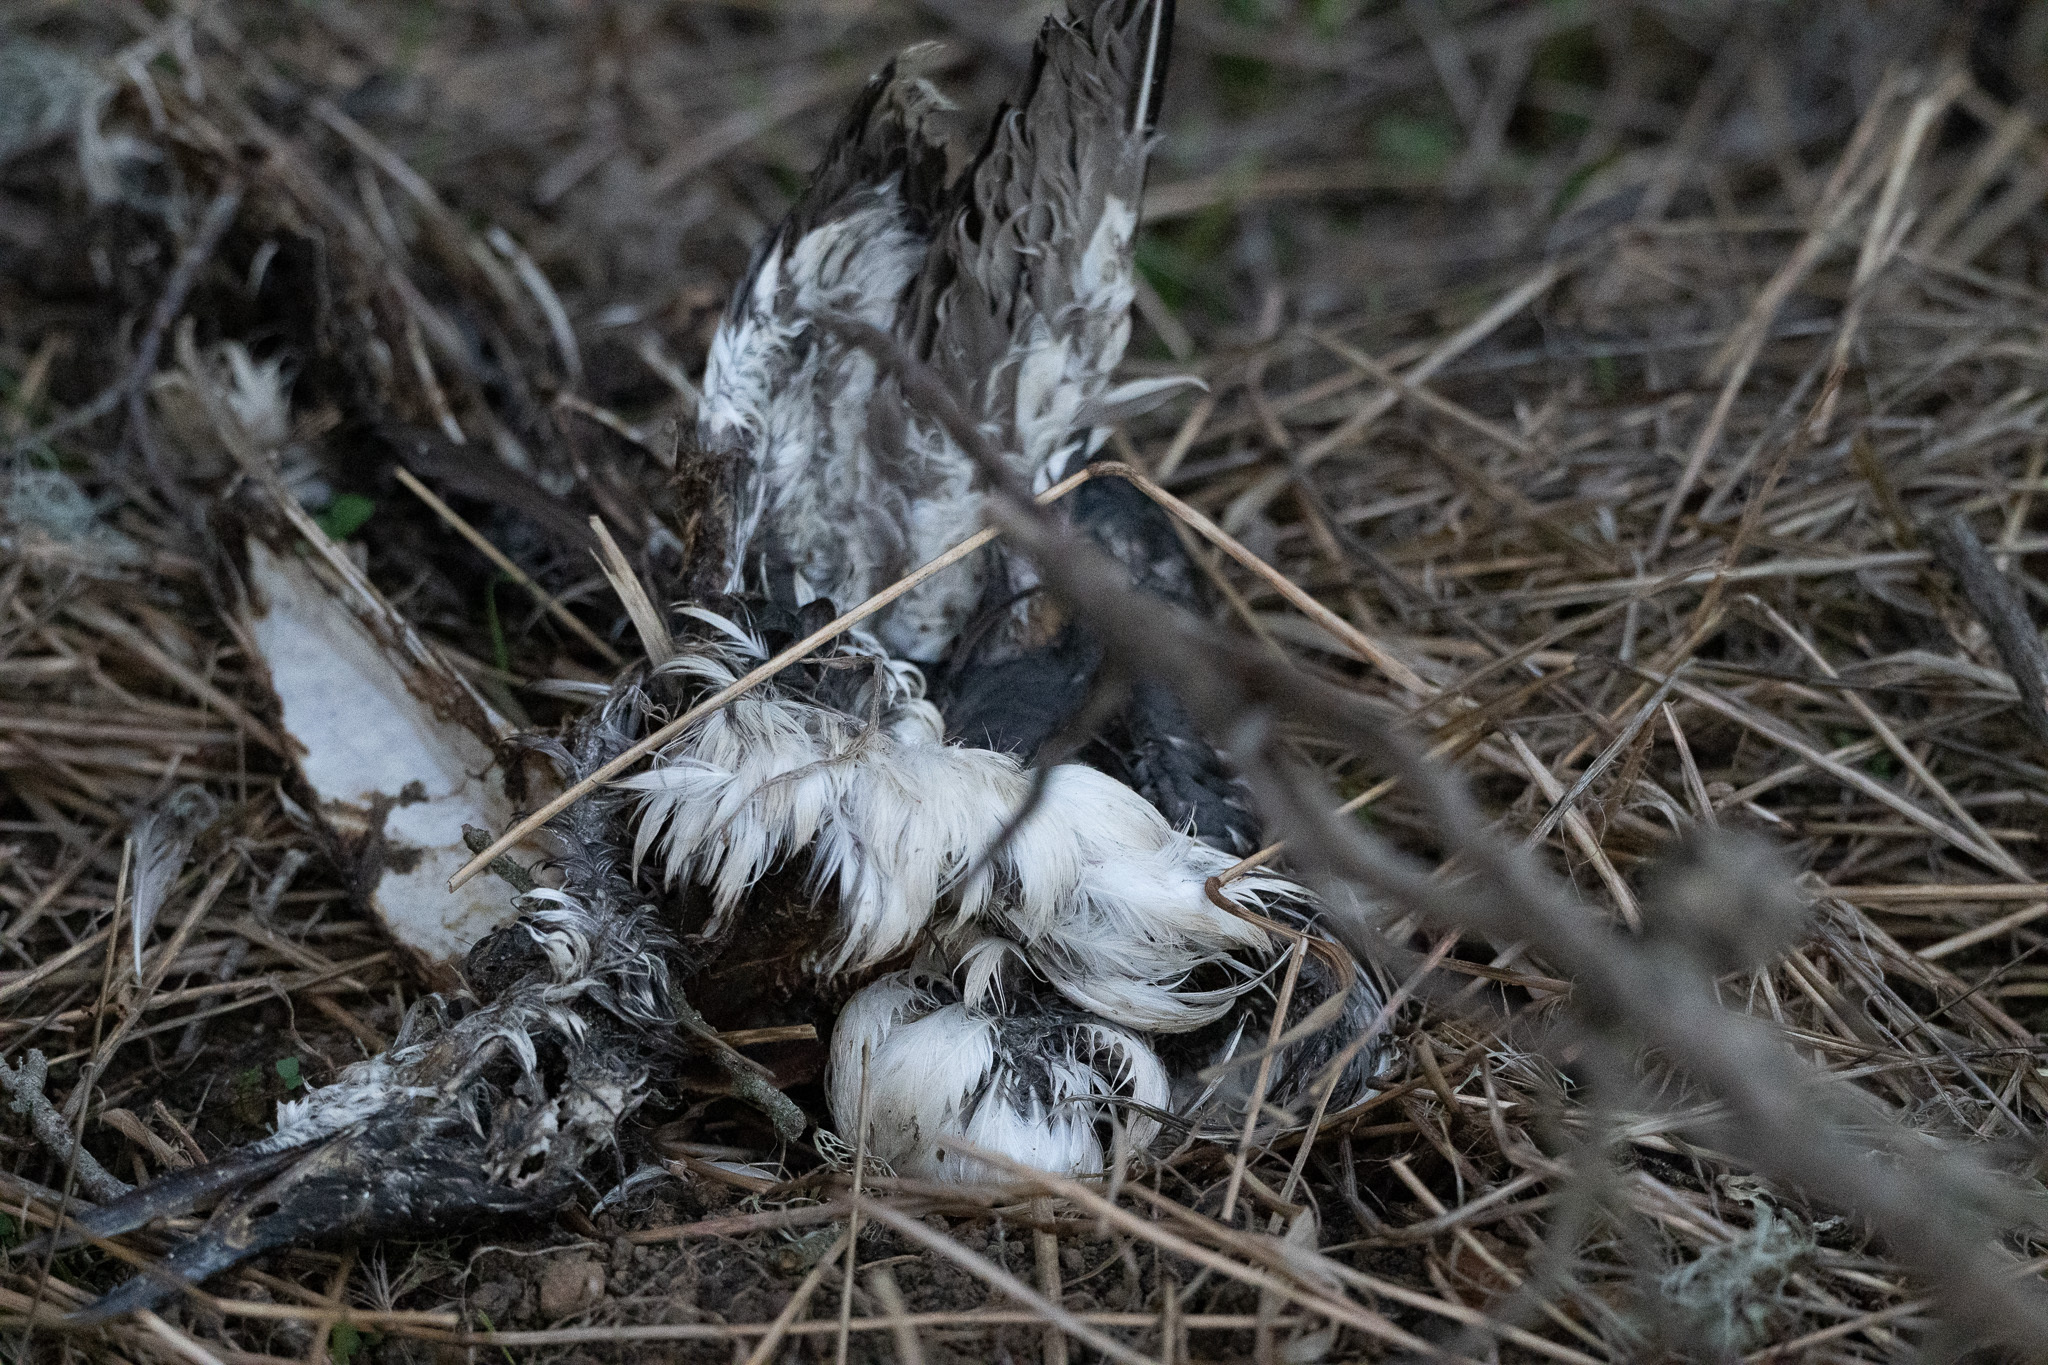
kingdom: Animalia
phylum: Chordata
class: Aves
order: Charadriiformes
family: Alcidae
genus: Uria
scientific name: Uria aalge
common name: Common murre
